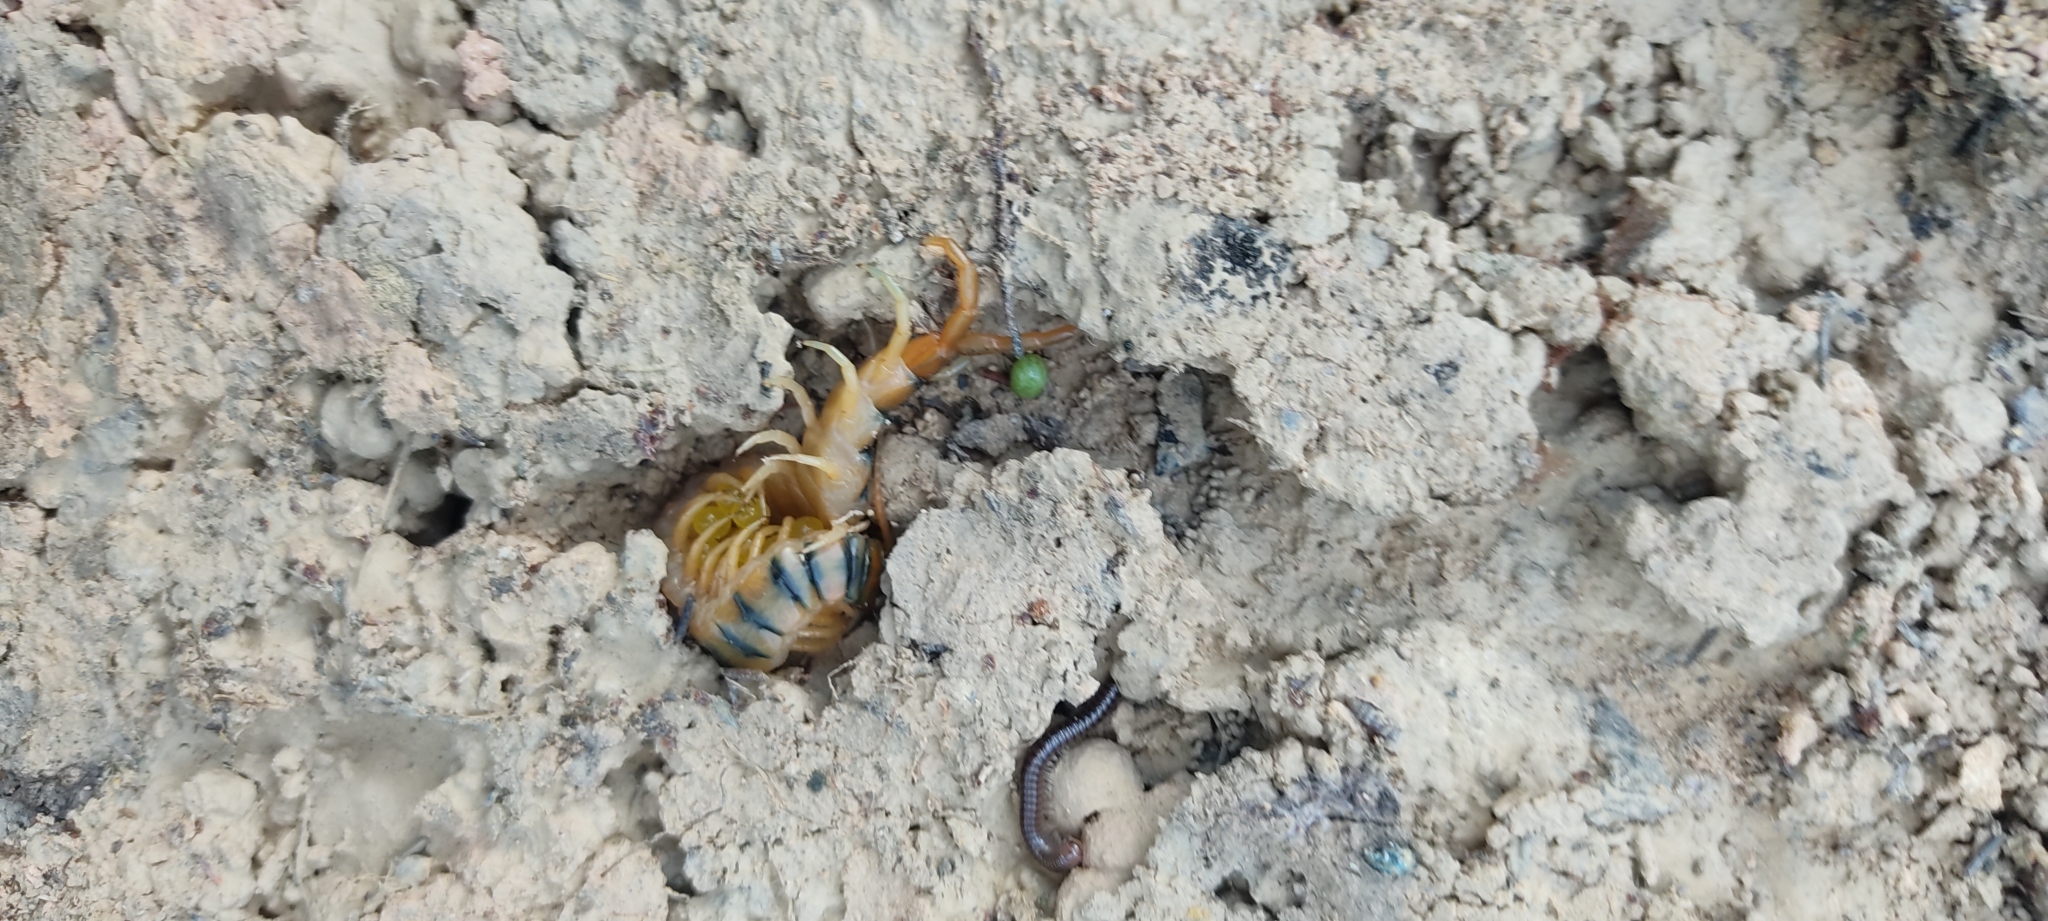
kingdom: Animalia
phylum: Arthropoda
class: Chilopoda
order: Scolopendromorpha
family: Scolopendridae
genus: Scolopendra
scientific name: Scolopendra cingulata
